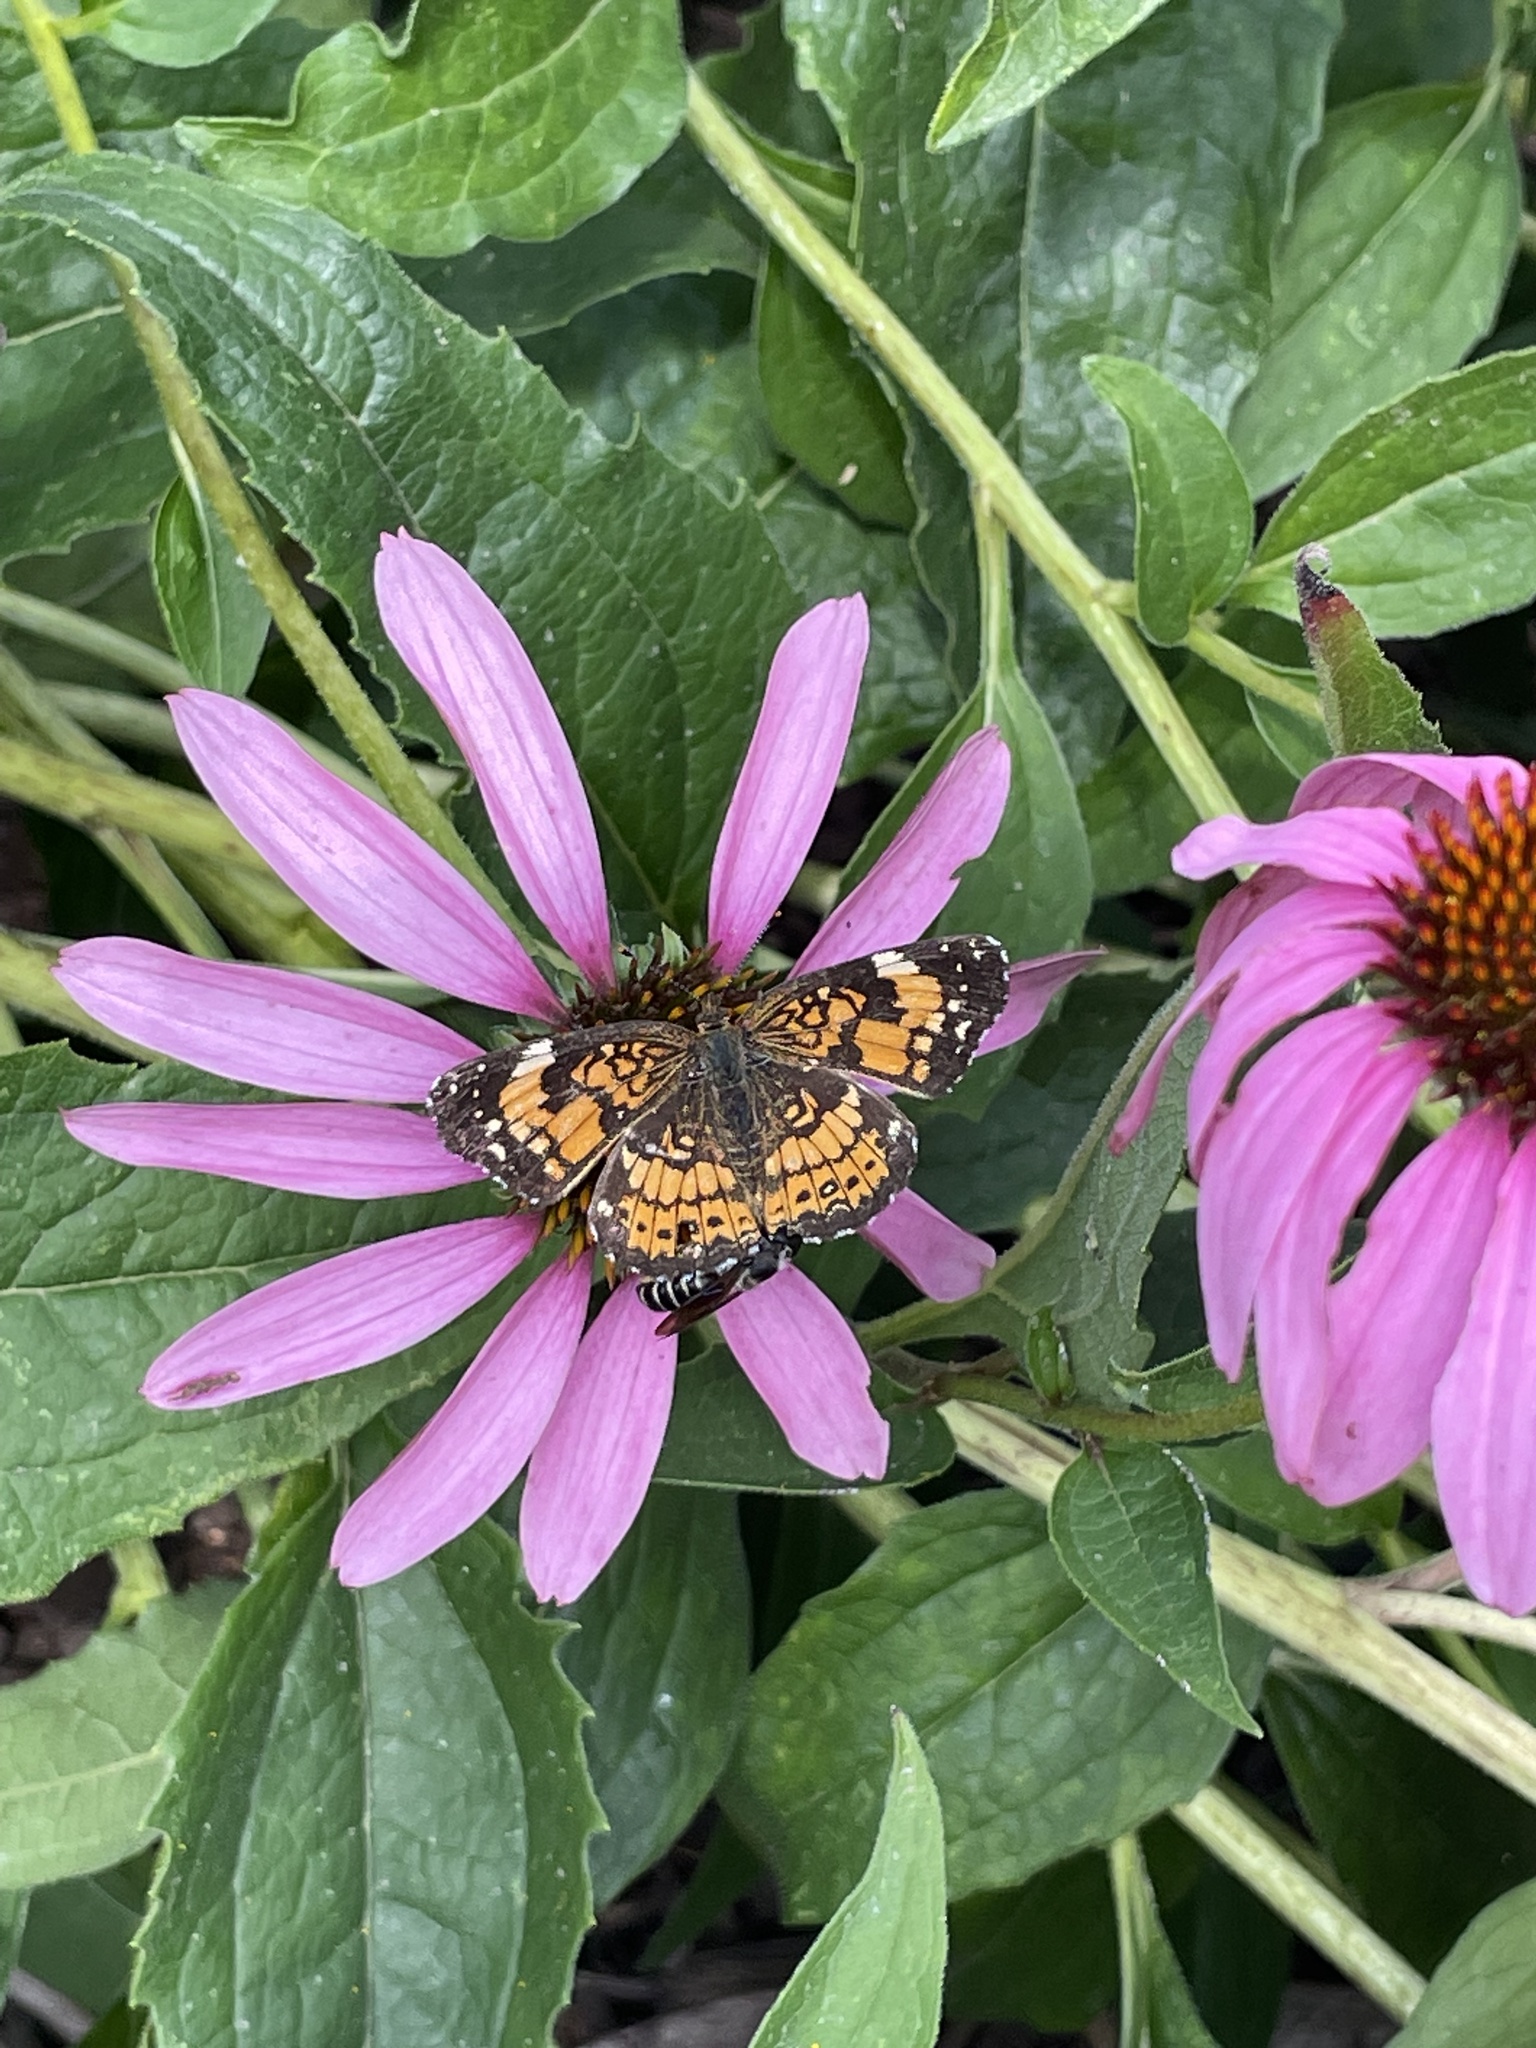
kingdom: Animalia
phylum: Arthropoda
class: Insecta
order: Lepidoptera
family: Nymphalidae
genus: Chlosyne
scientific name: Chlosyne nycteis
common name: Silvery checkerspot
